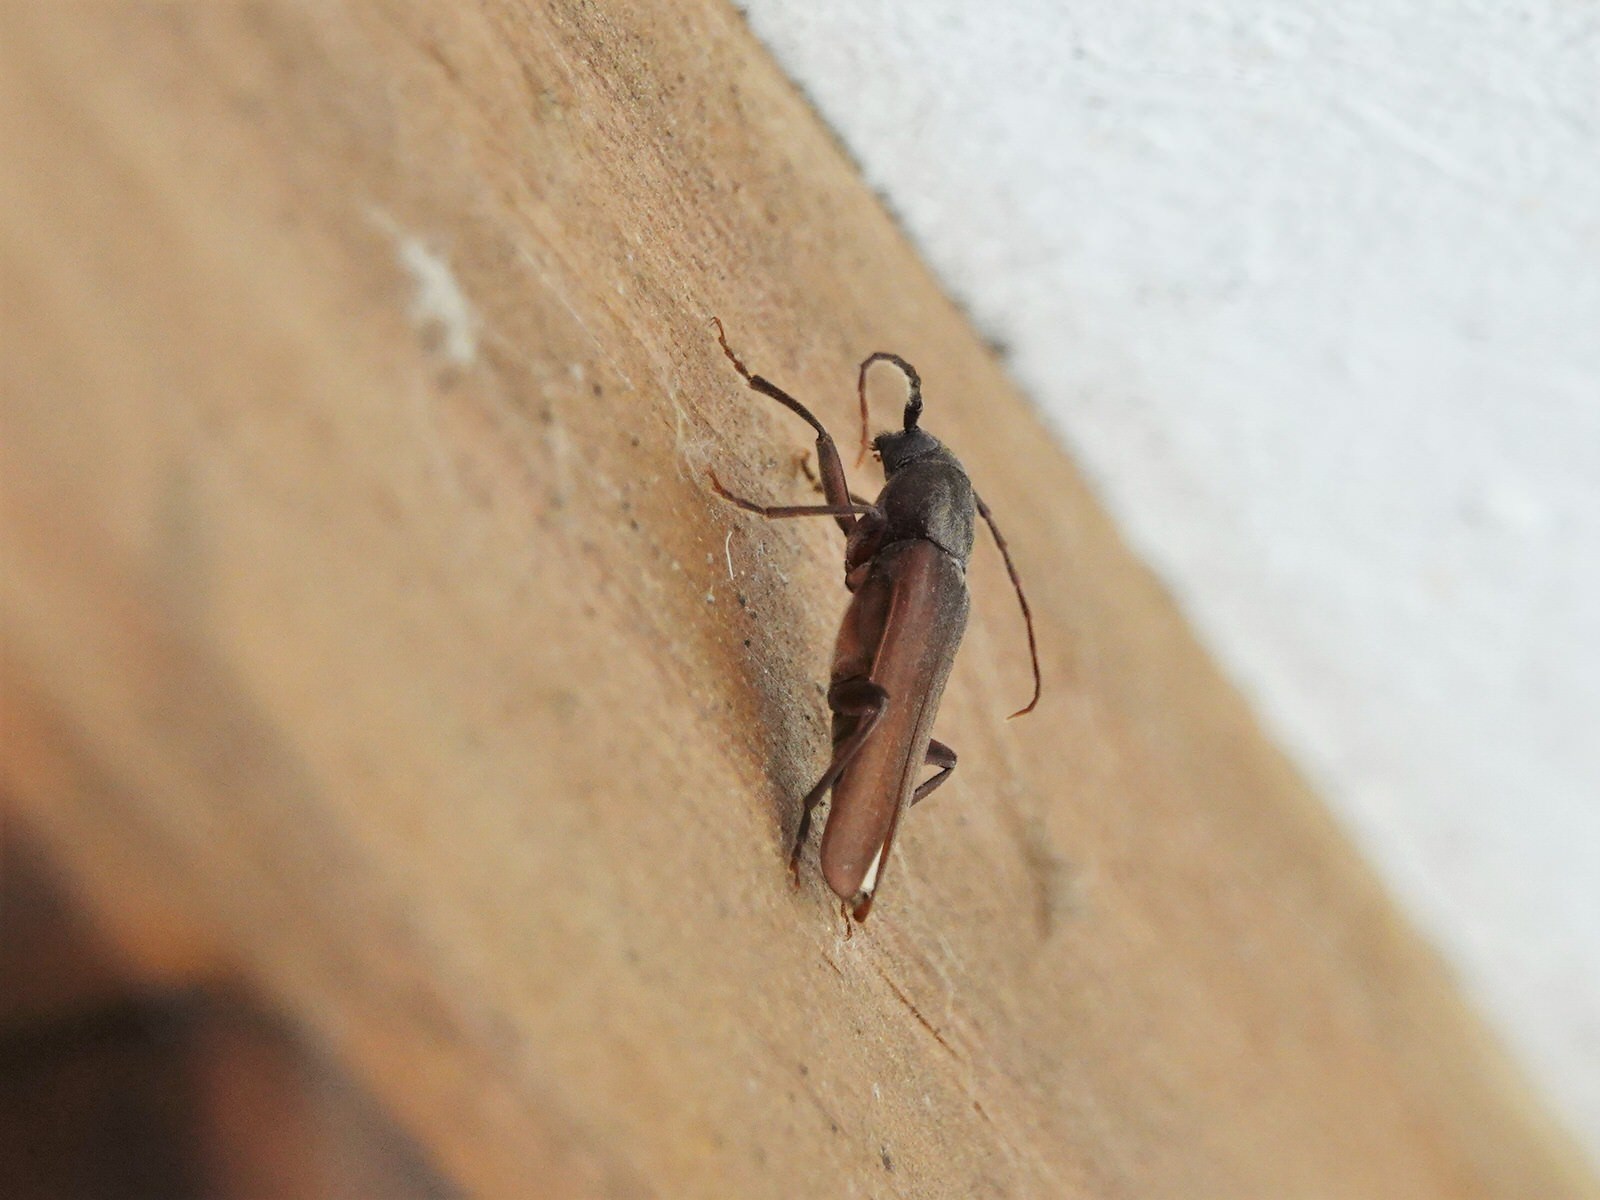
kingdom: Animalia
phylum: Arthropoda
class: Insecta
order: Coleoptera
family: Cerambycidae
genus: Arhopalus
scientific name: Arhopalus ferus
